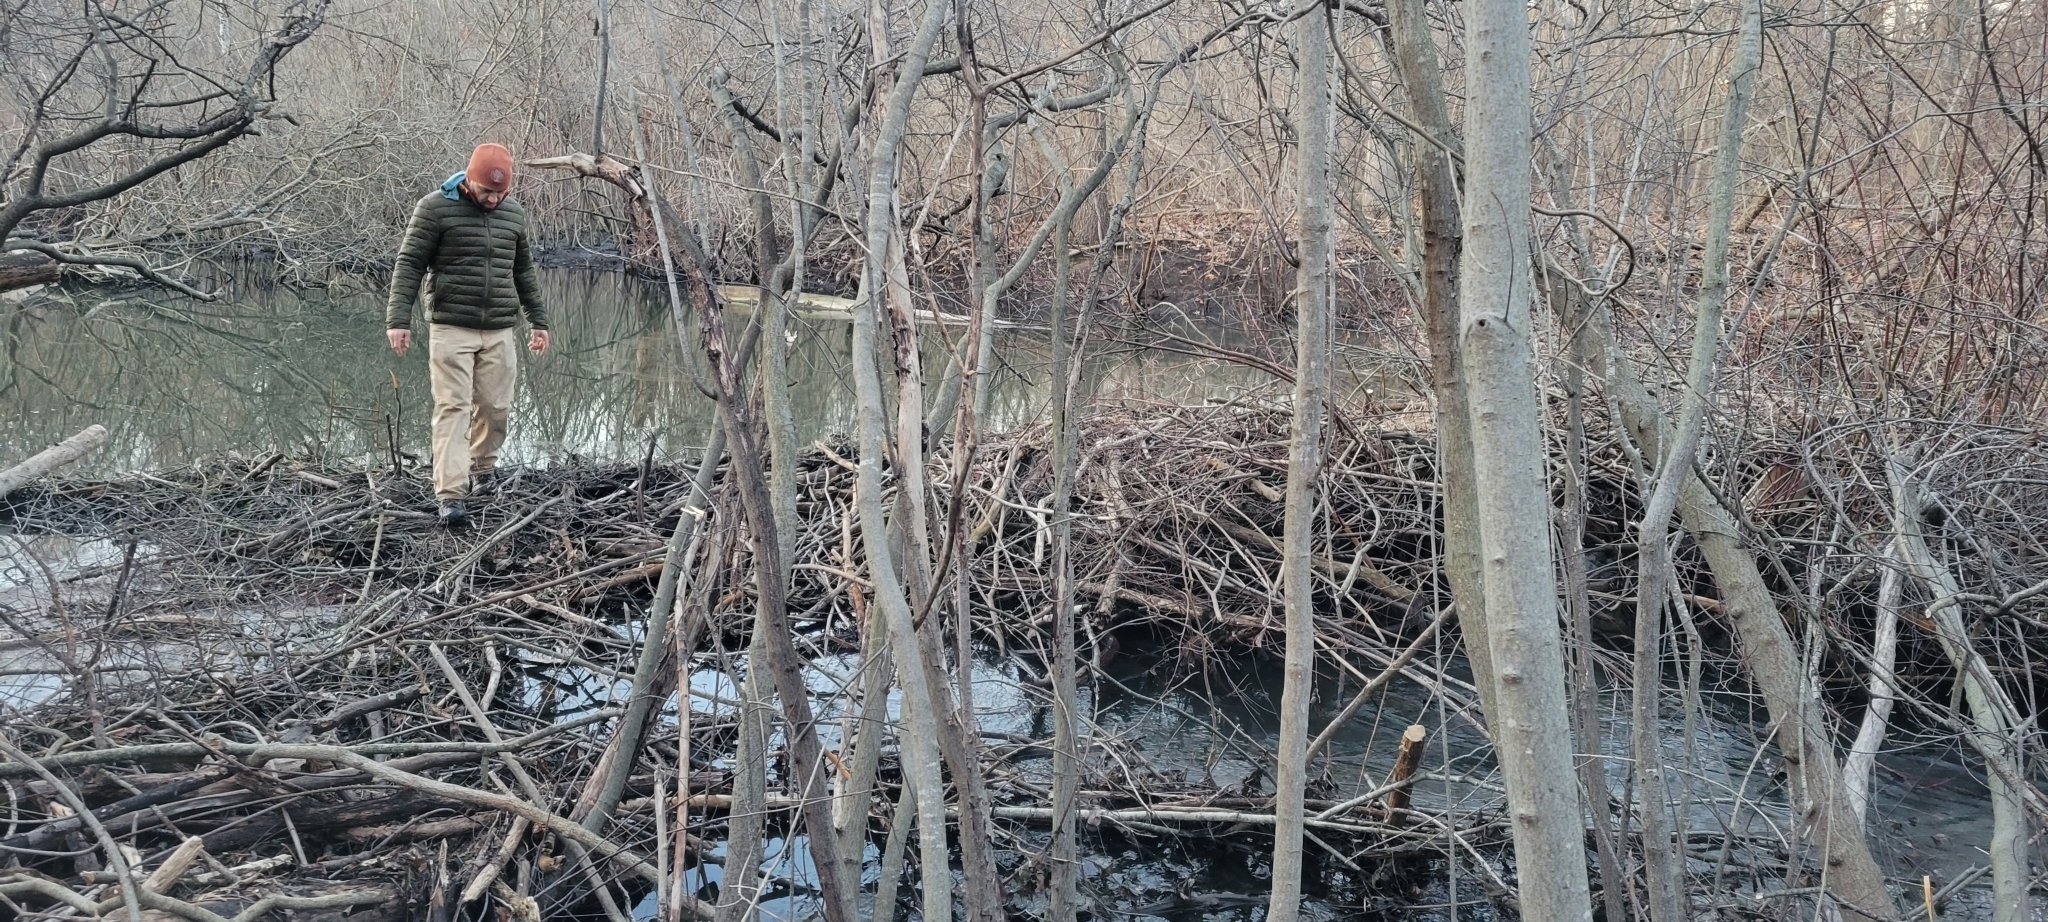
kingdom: Animalia
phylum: Chordata
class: Mammalia
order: Rodentia
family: Castoridae
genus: Castor
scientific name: Castor canadensis
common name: American beaver
